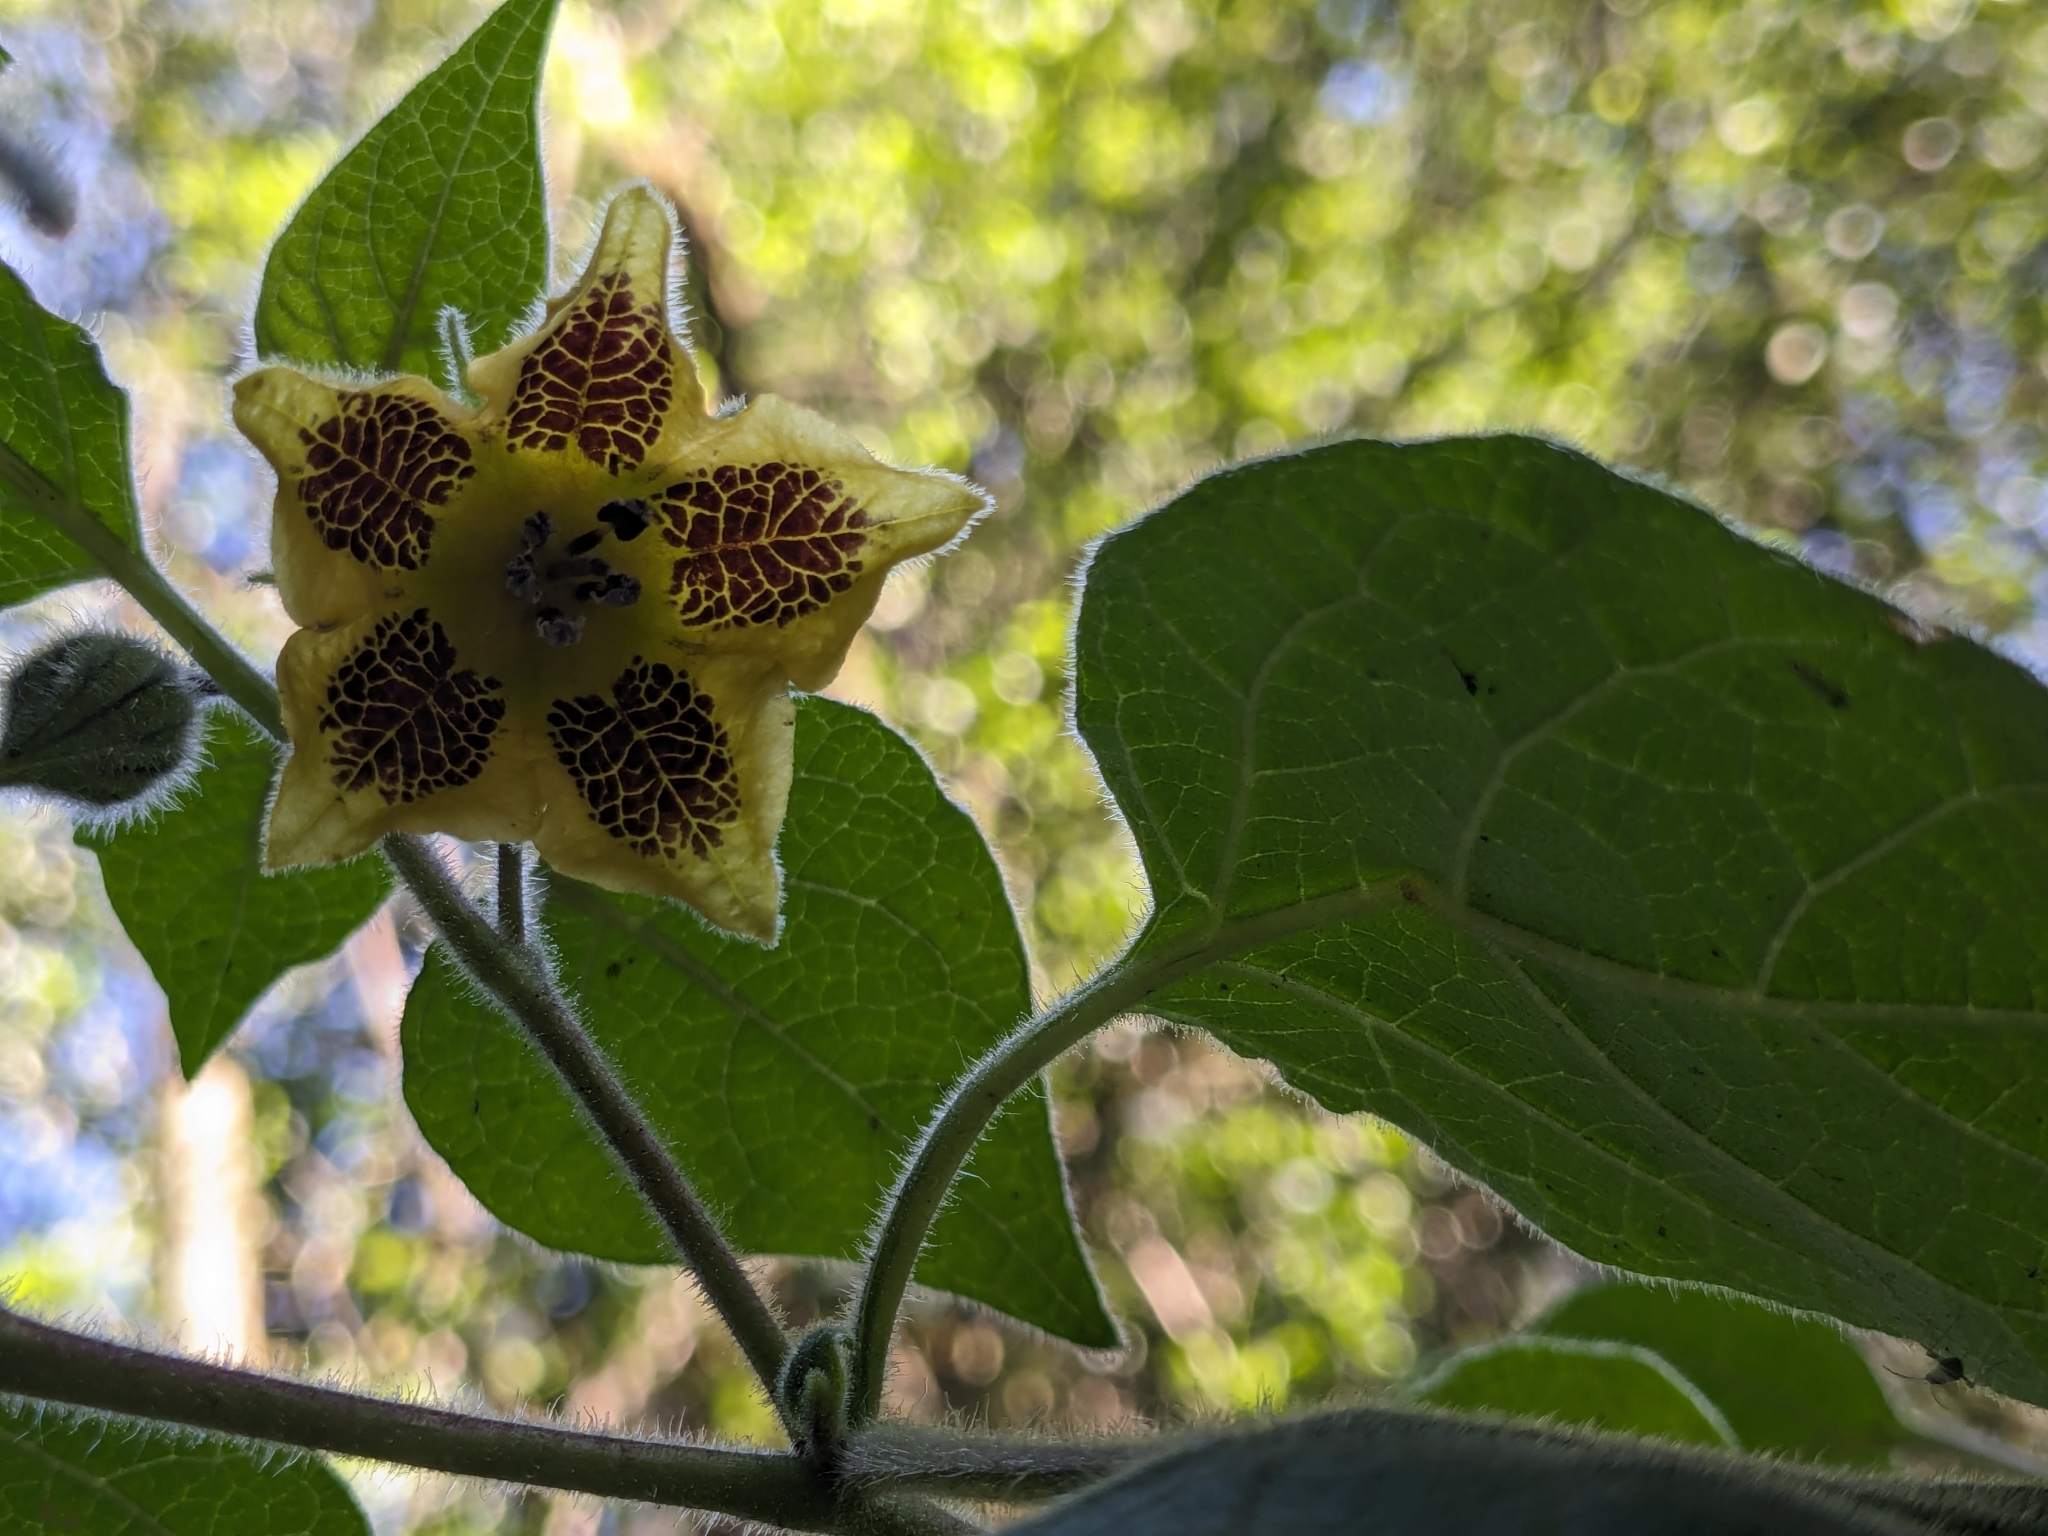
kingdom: Plantae
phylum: Tracheophyta
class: Magnoliopsida
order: Solanales
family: Solanaceae
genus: Physalis
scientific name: Physalis coztomatl
